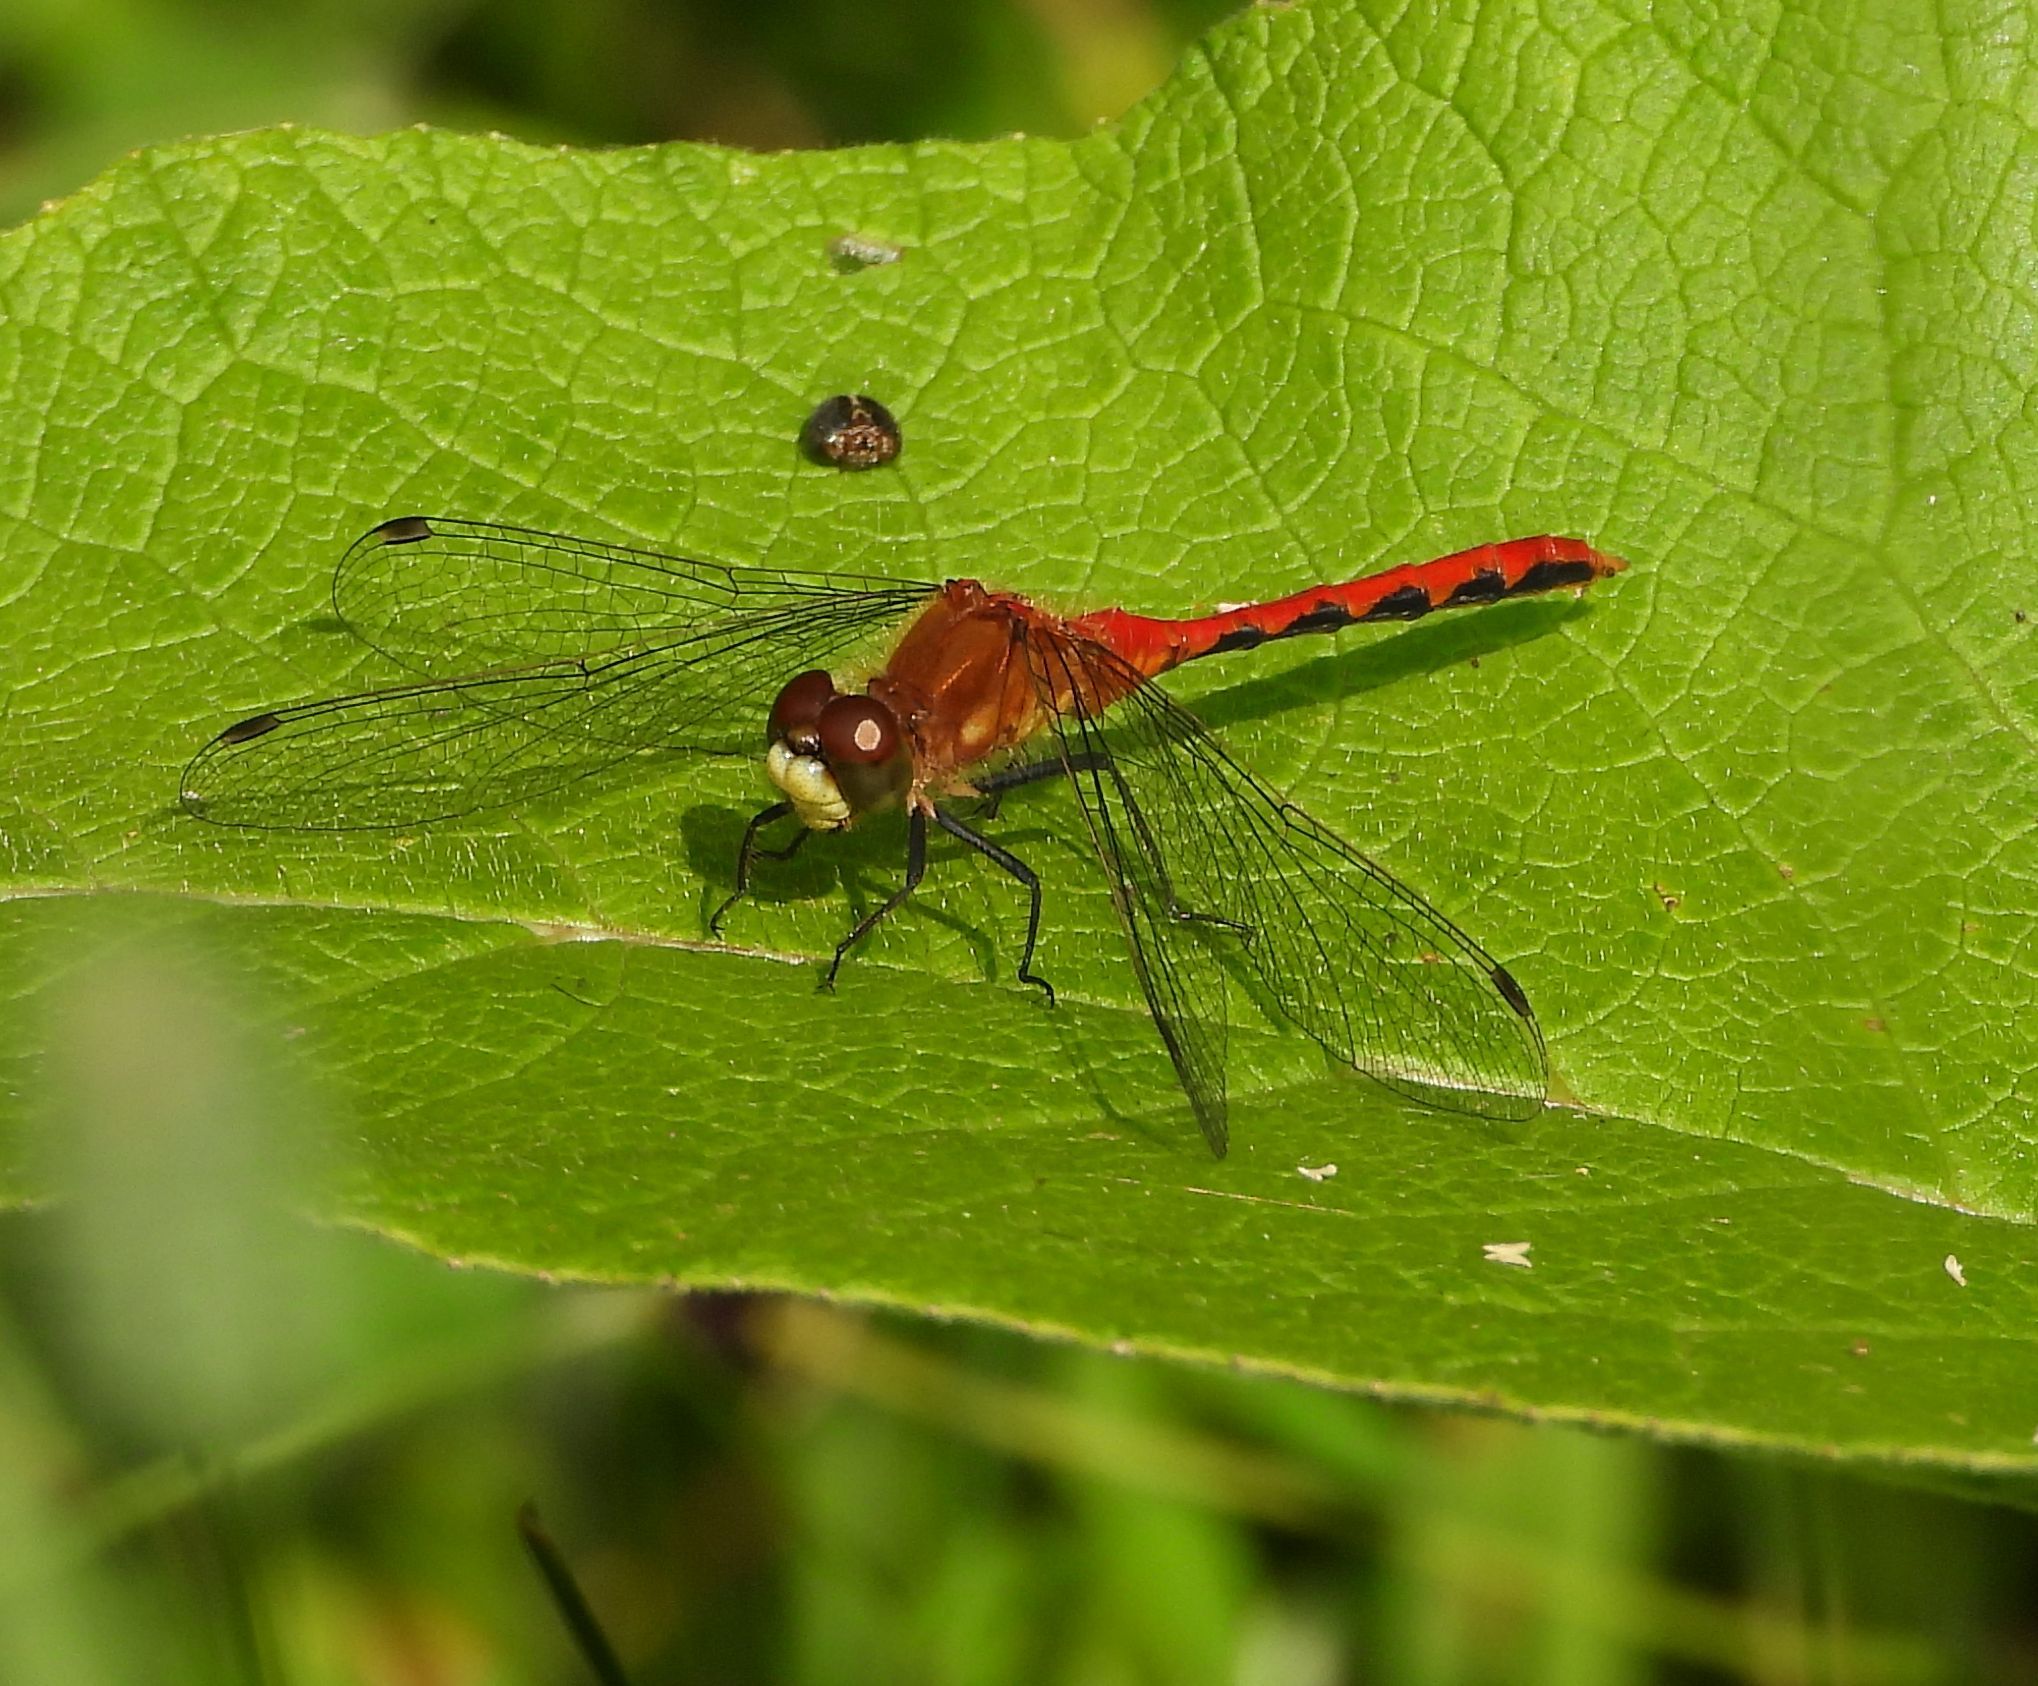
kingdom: Animalia
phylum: Arthropoda
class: Insecta
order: Odonata
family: Libellulidae
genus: Sympetrum
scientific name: Sympetrum obtrusum
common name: White-faced meadowhawk
